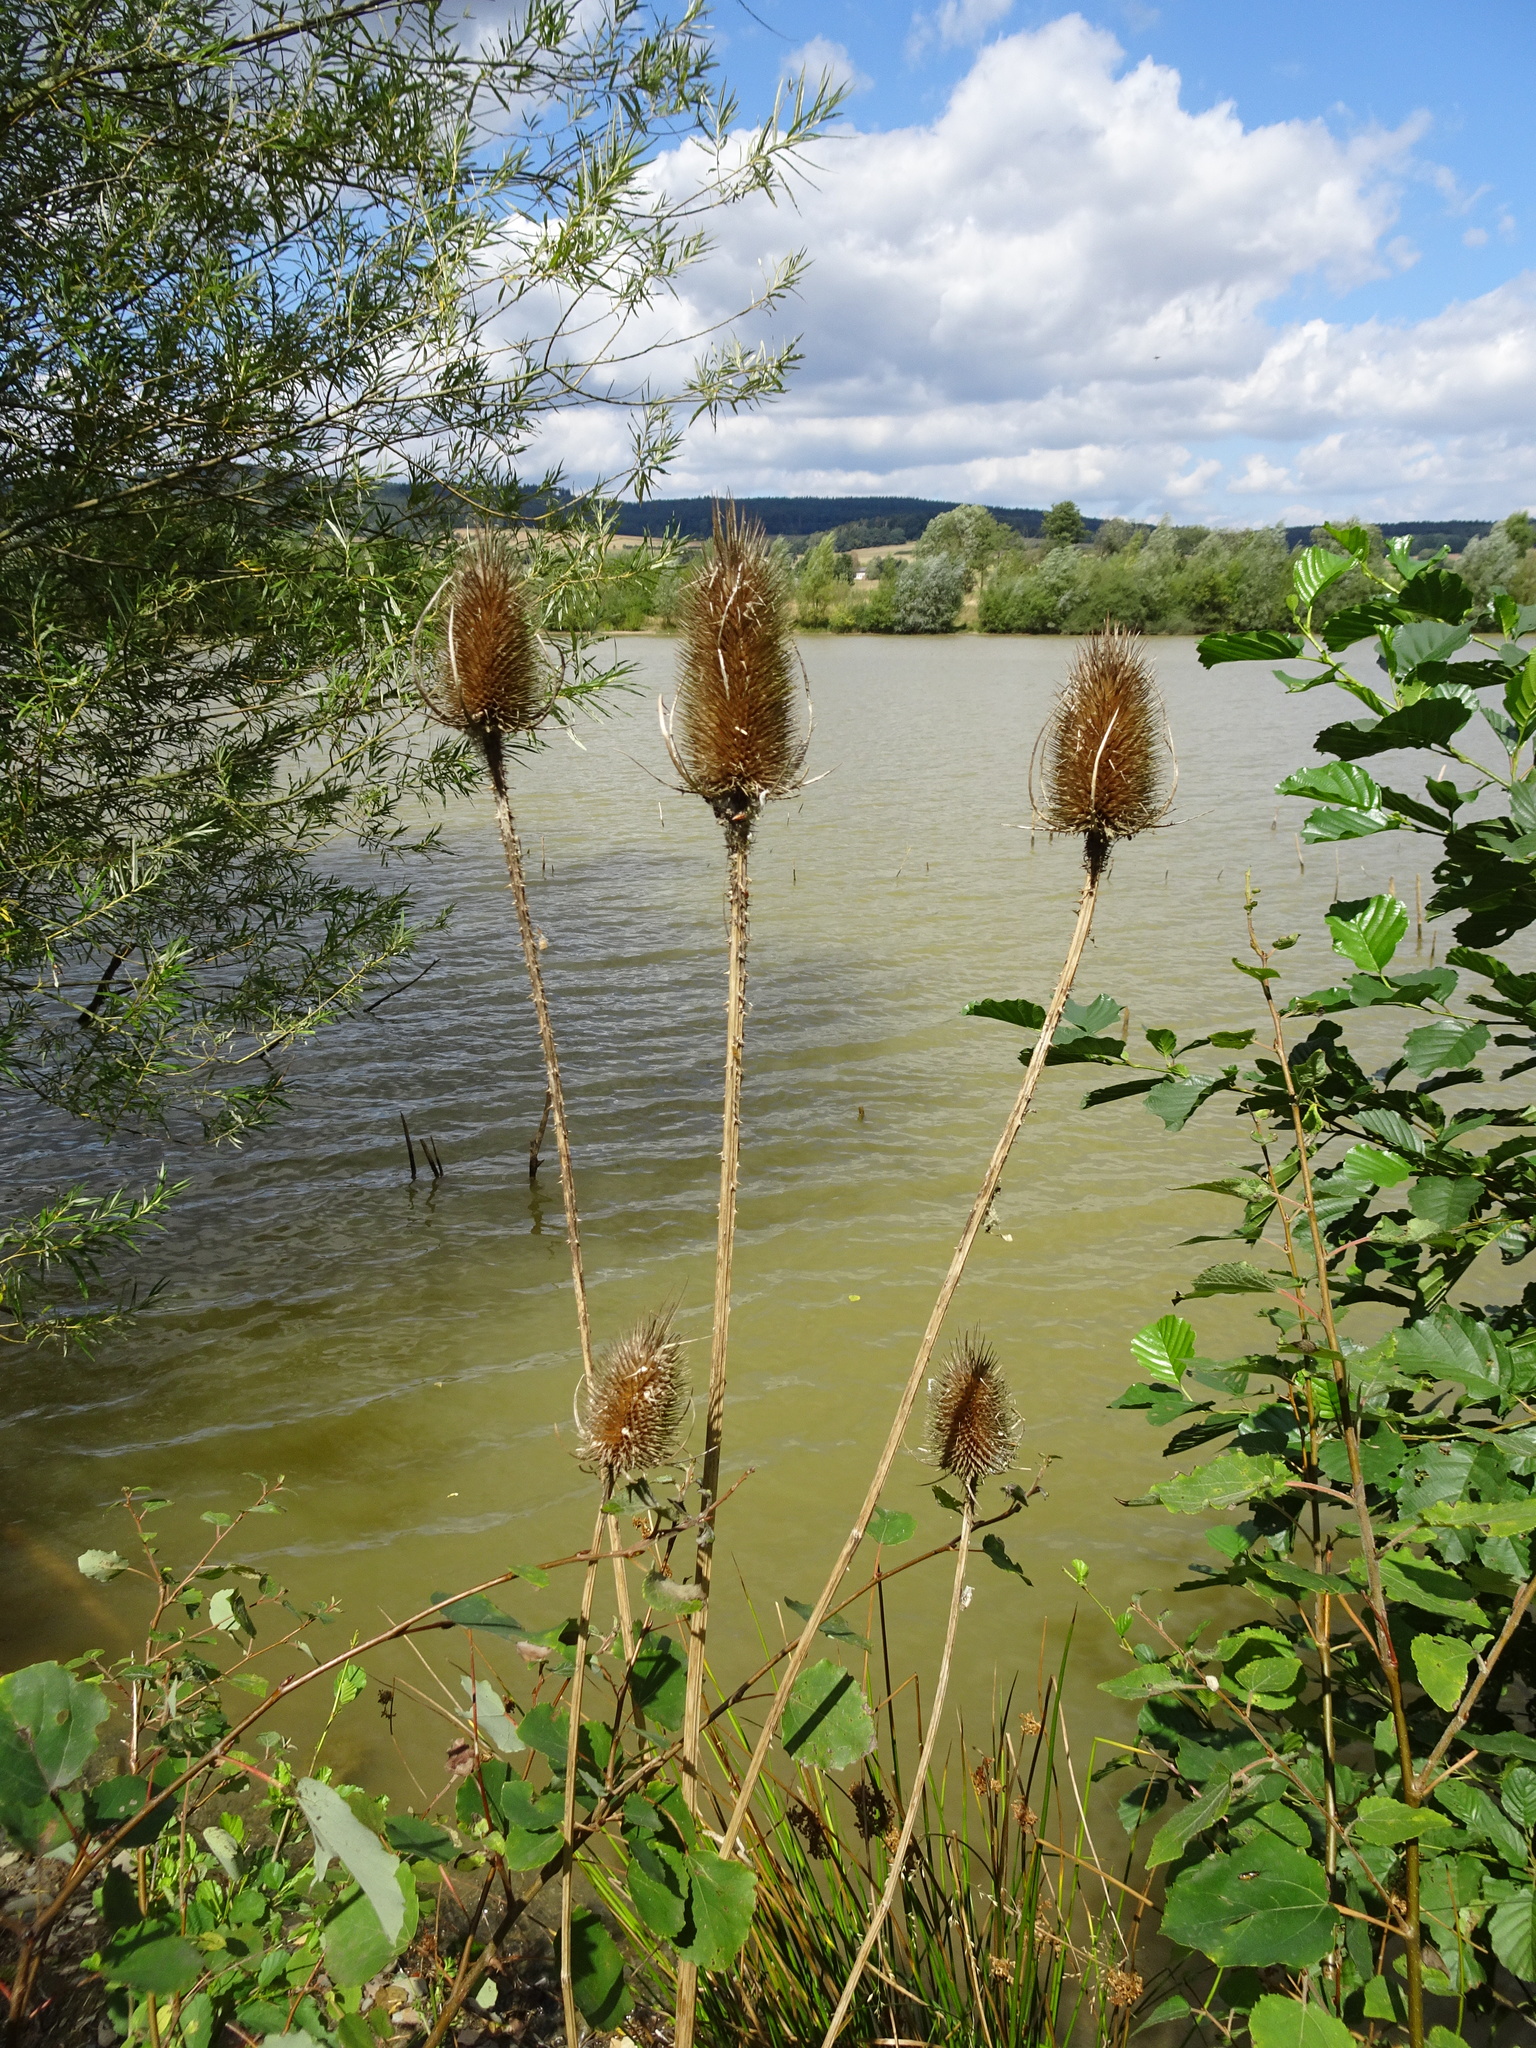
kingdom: Plantae
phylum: Tracheophyta
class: Magnoliopsida
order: Dipsacales
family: Caprifoliaceae
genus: Dipsacus
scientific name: Dipsacus fullonum
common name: Teasel
